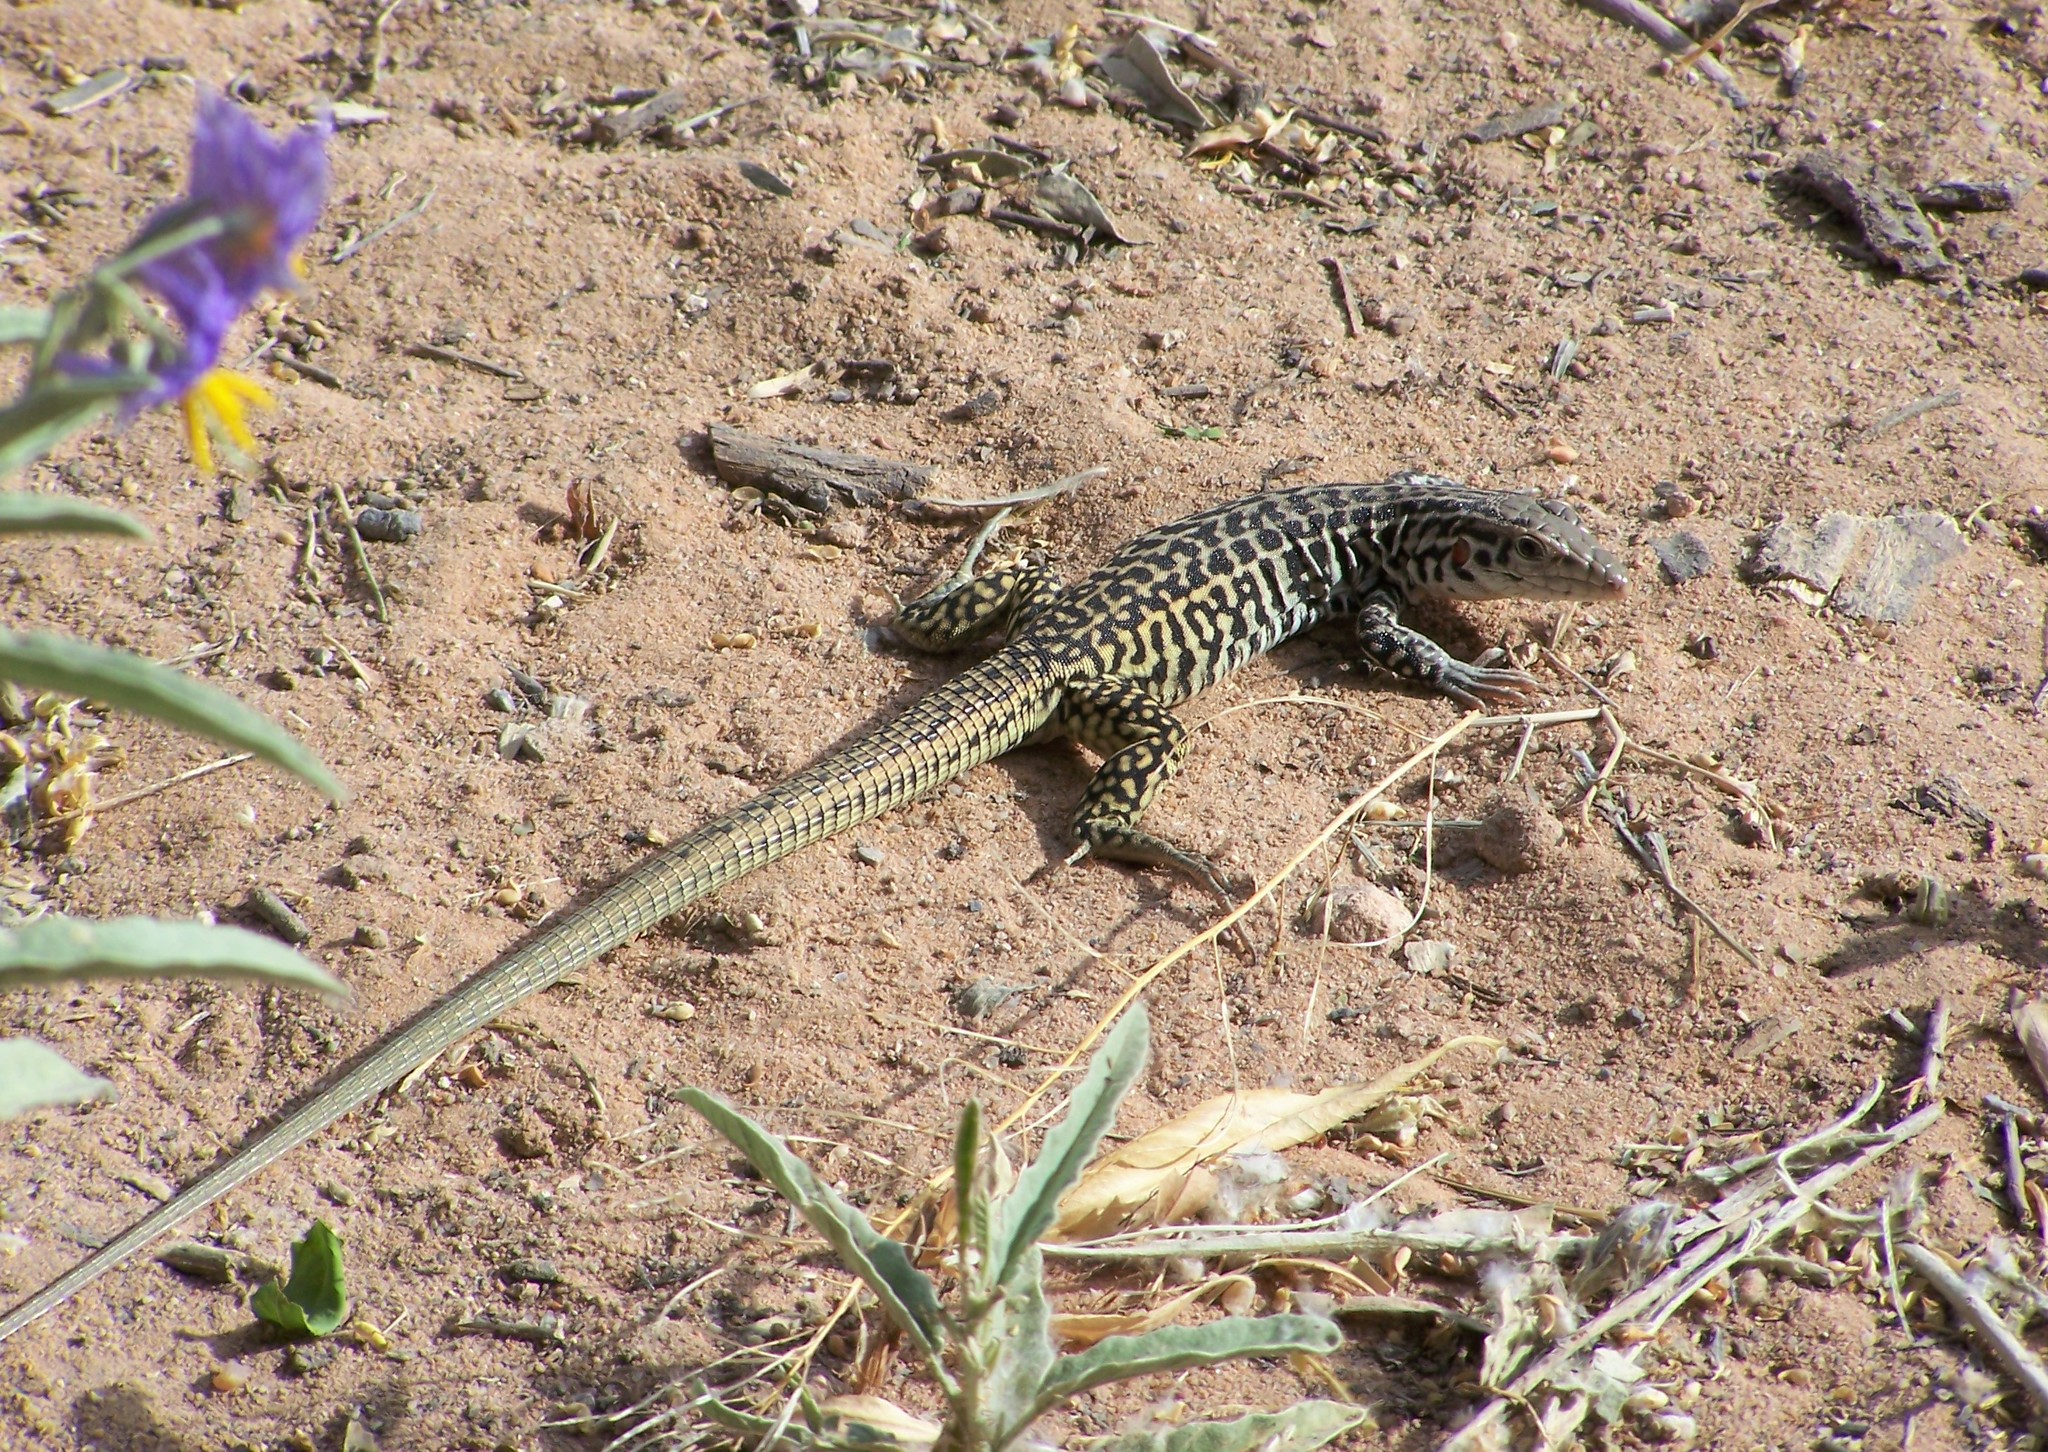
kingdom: Animalia
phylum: Chordata
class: Squamata
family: Teiidae
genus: Aspidoscelis
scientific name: Aspidoscelis tesselatus
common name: Common checkered whiptail [tesselata]
